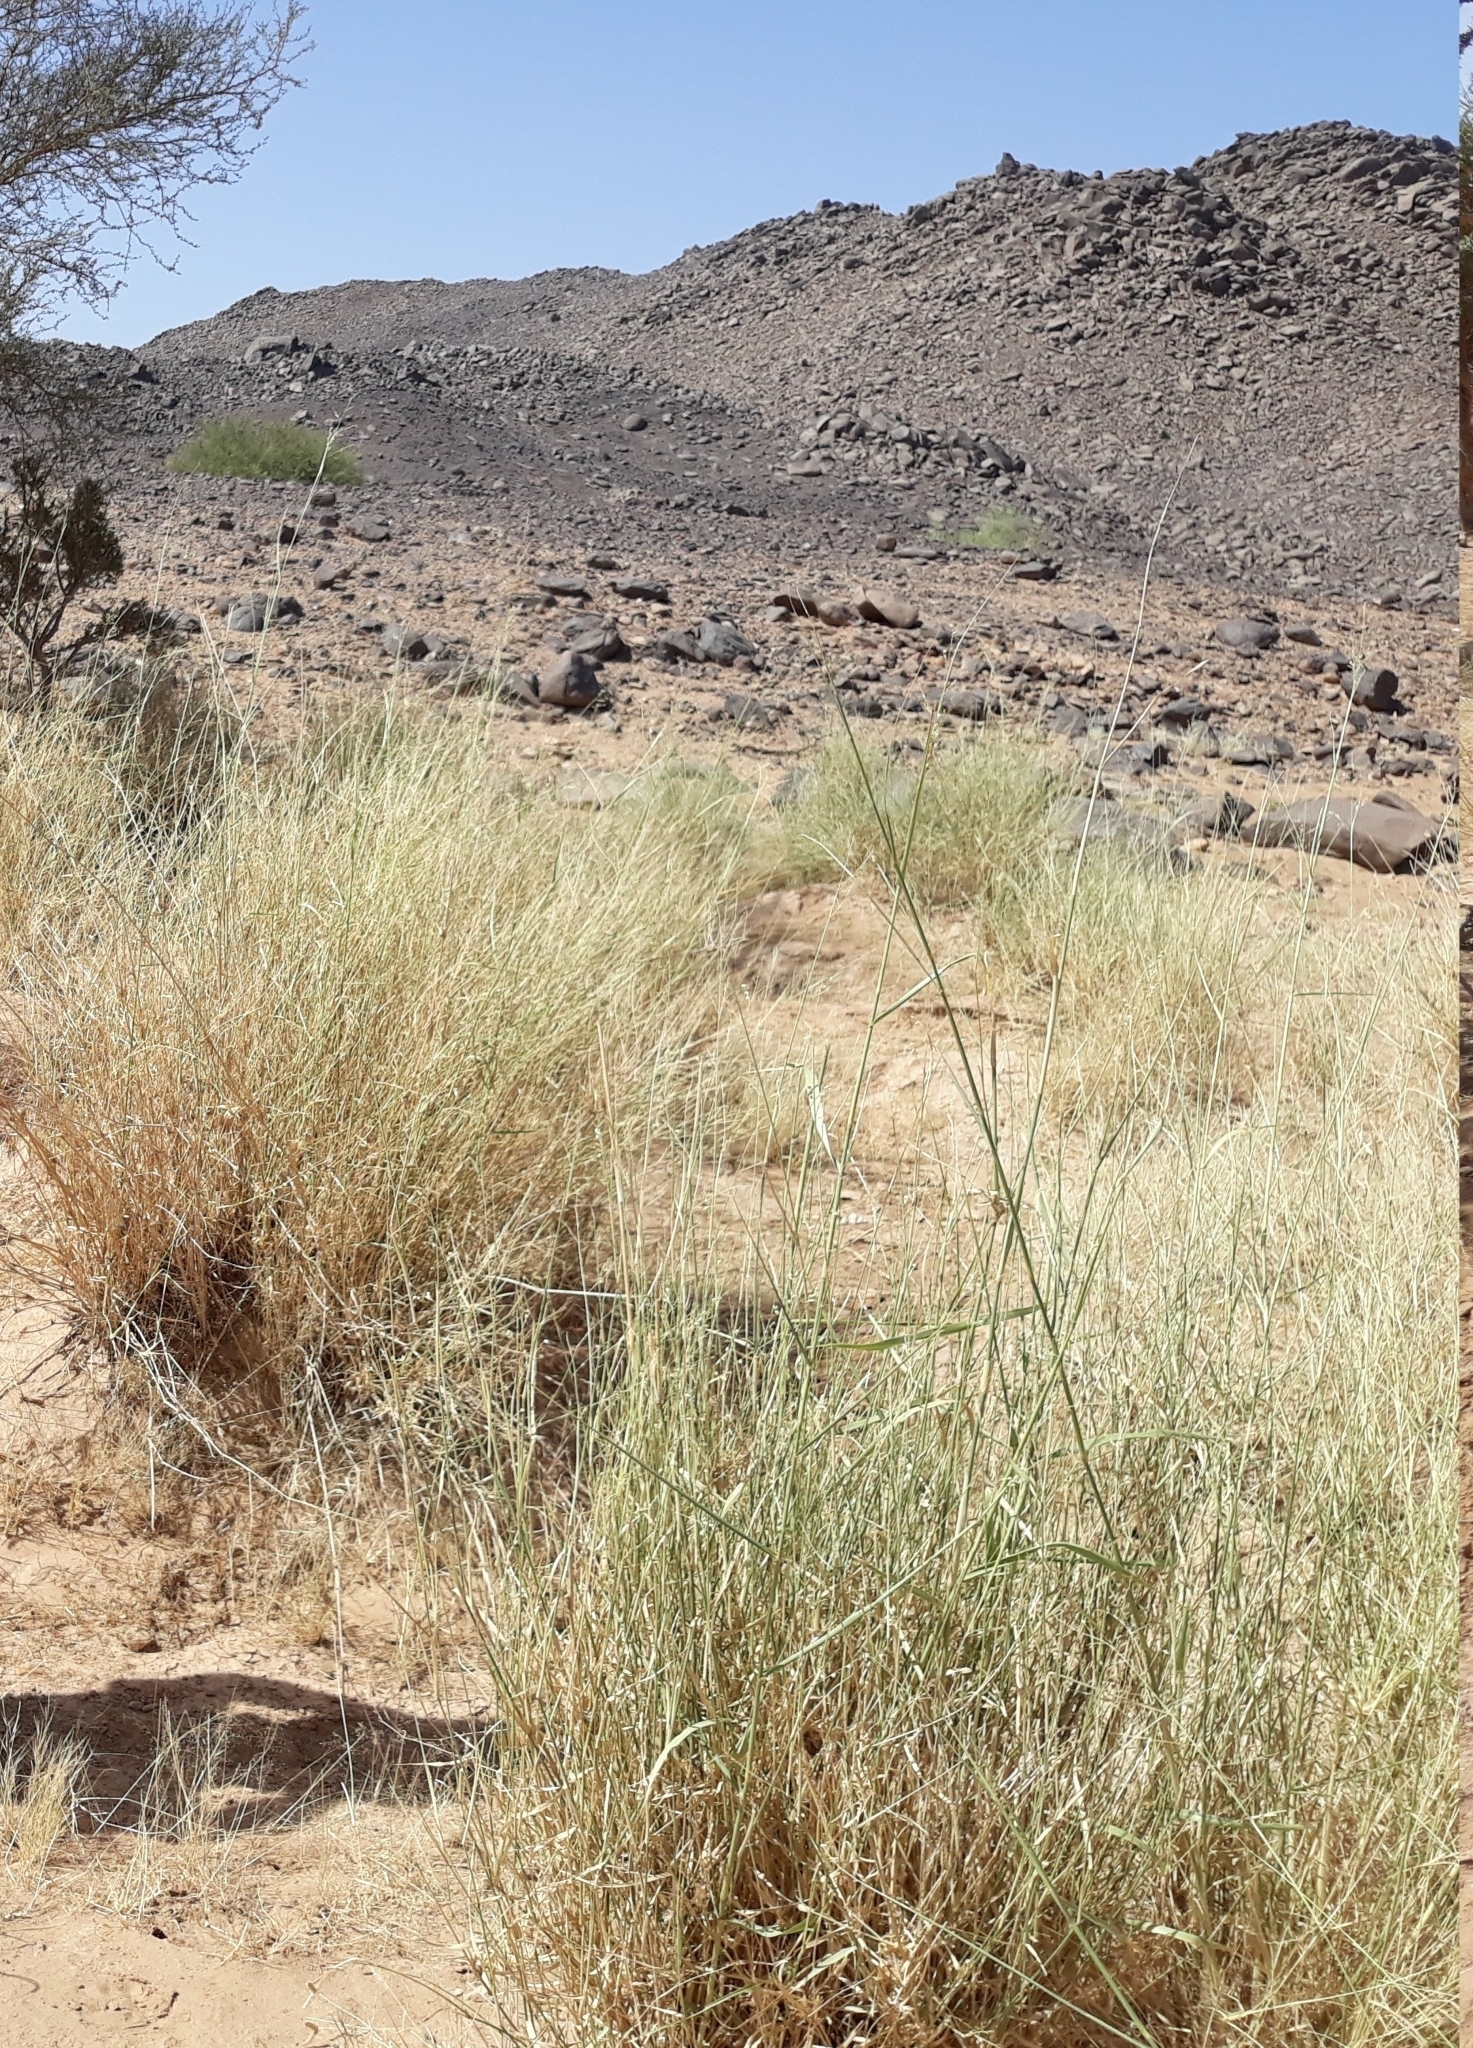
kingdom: Plantae
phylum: Tracheophyta
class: Liliopsida
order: Poales
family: Poaceae
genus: Panicum
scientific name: Panicum turgidum
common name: Desert grass
